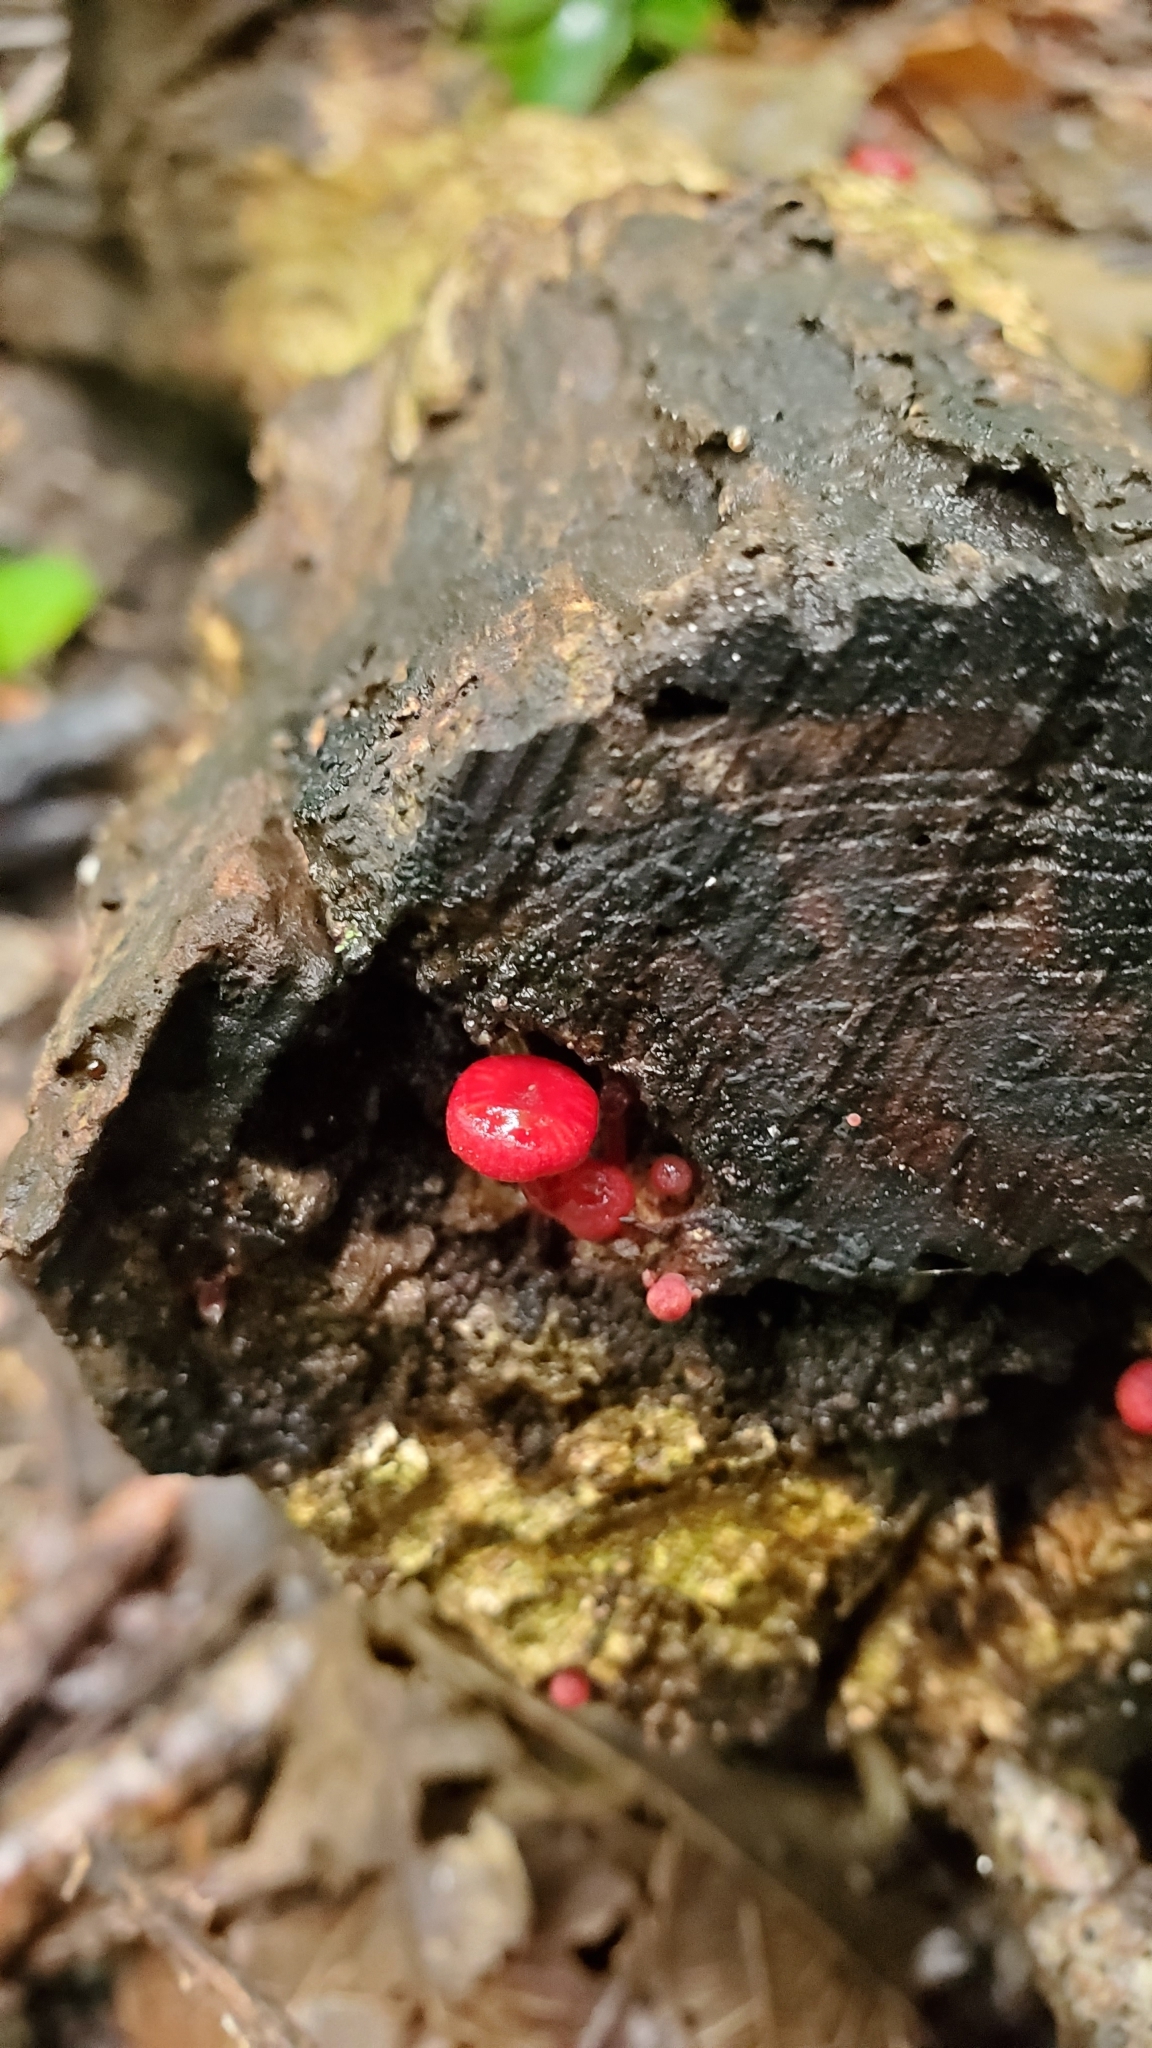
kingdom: Fungi
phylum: Basidiomycota
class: Agaricomycetes
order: Agaricales
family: Mycenaceae
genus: Cruentomycena
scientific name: Cruentomycena viscidocruenta
